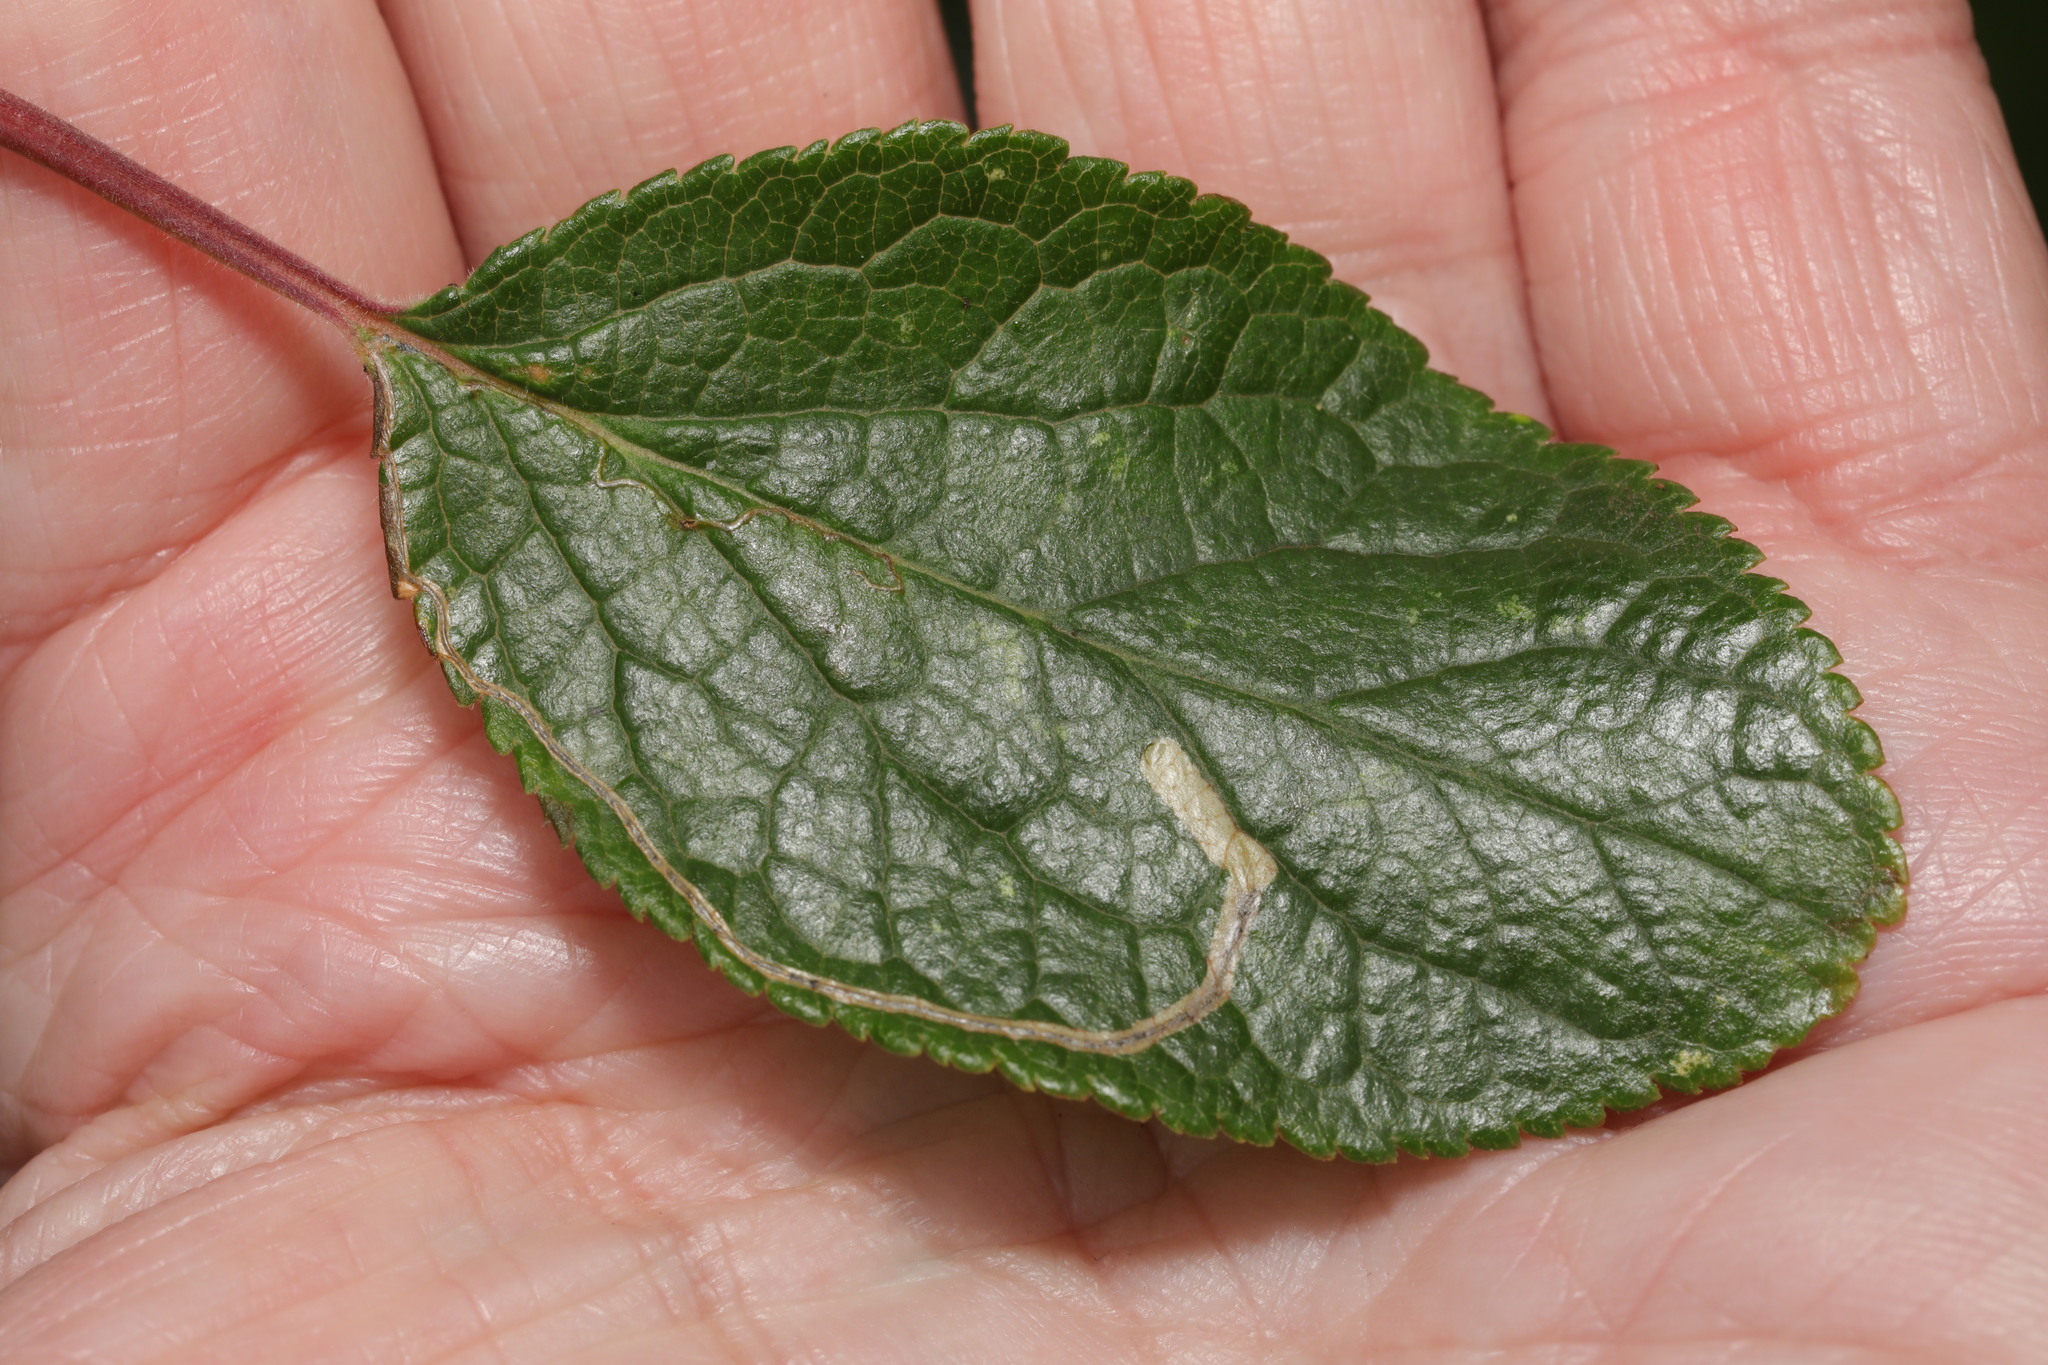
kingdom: Animalia
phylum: Arthropoda
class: Insecta
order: Lepidoptera
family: Lyonetiidae
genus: Lyonetia
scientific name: Lyonetia clerkella
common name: Apple leaf miner
